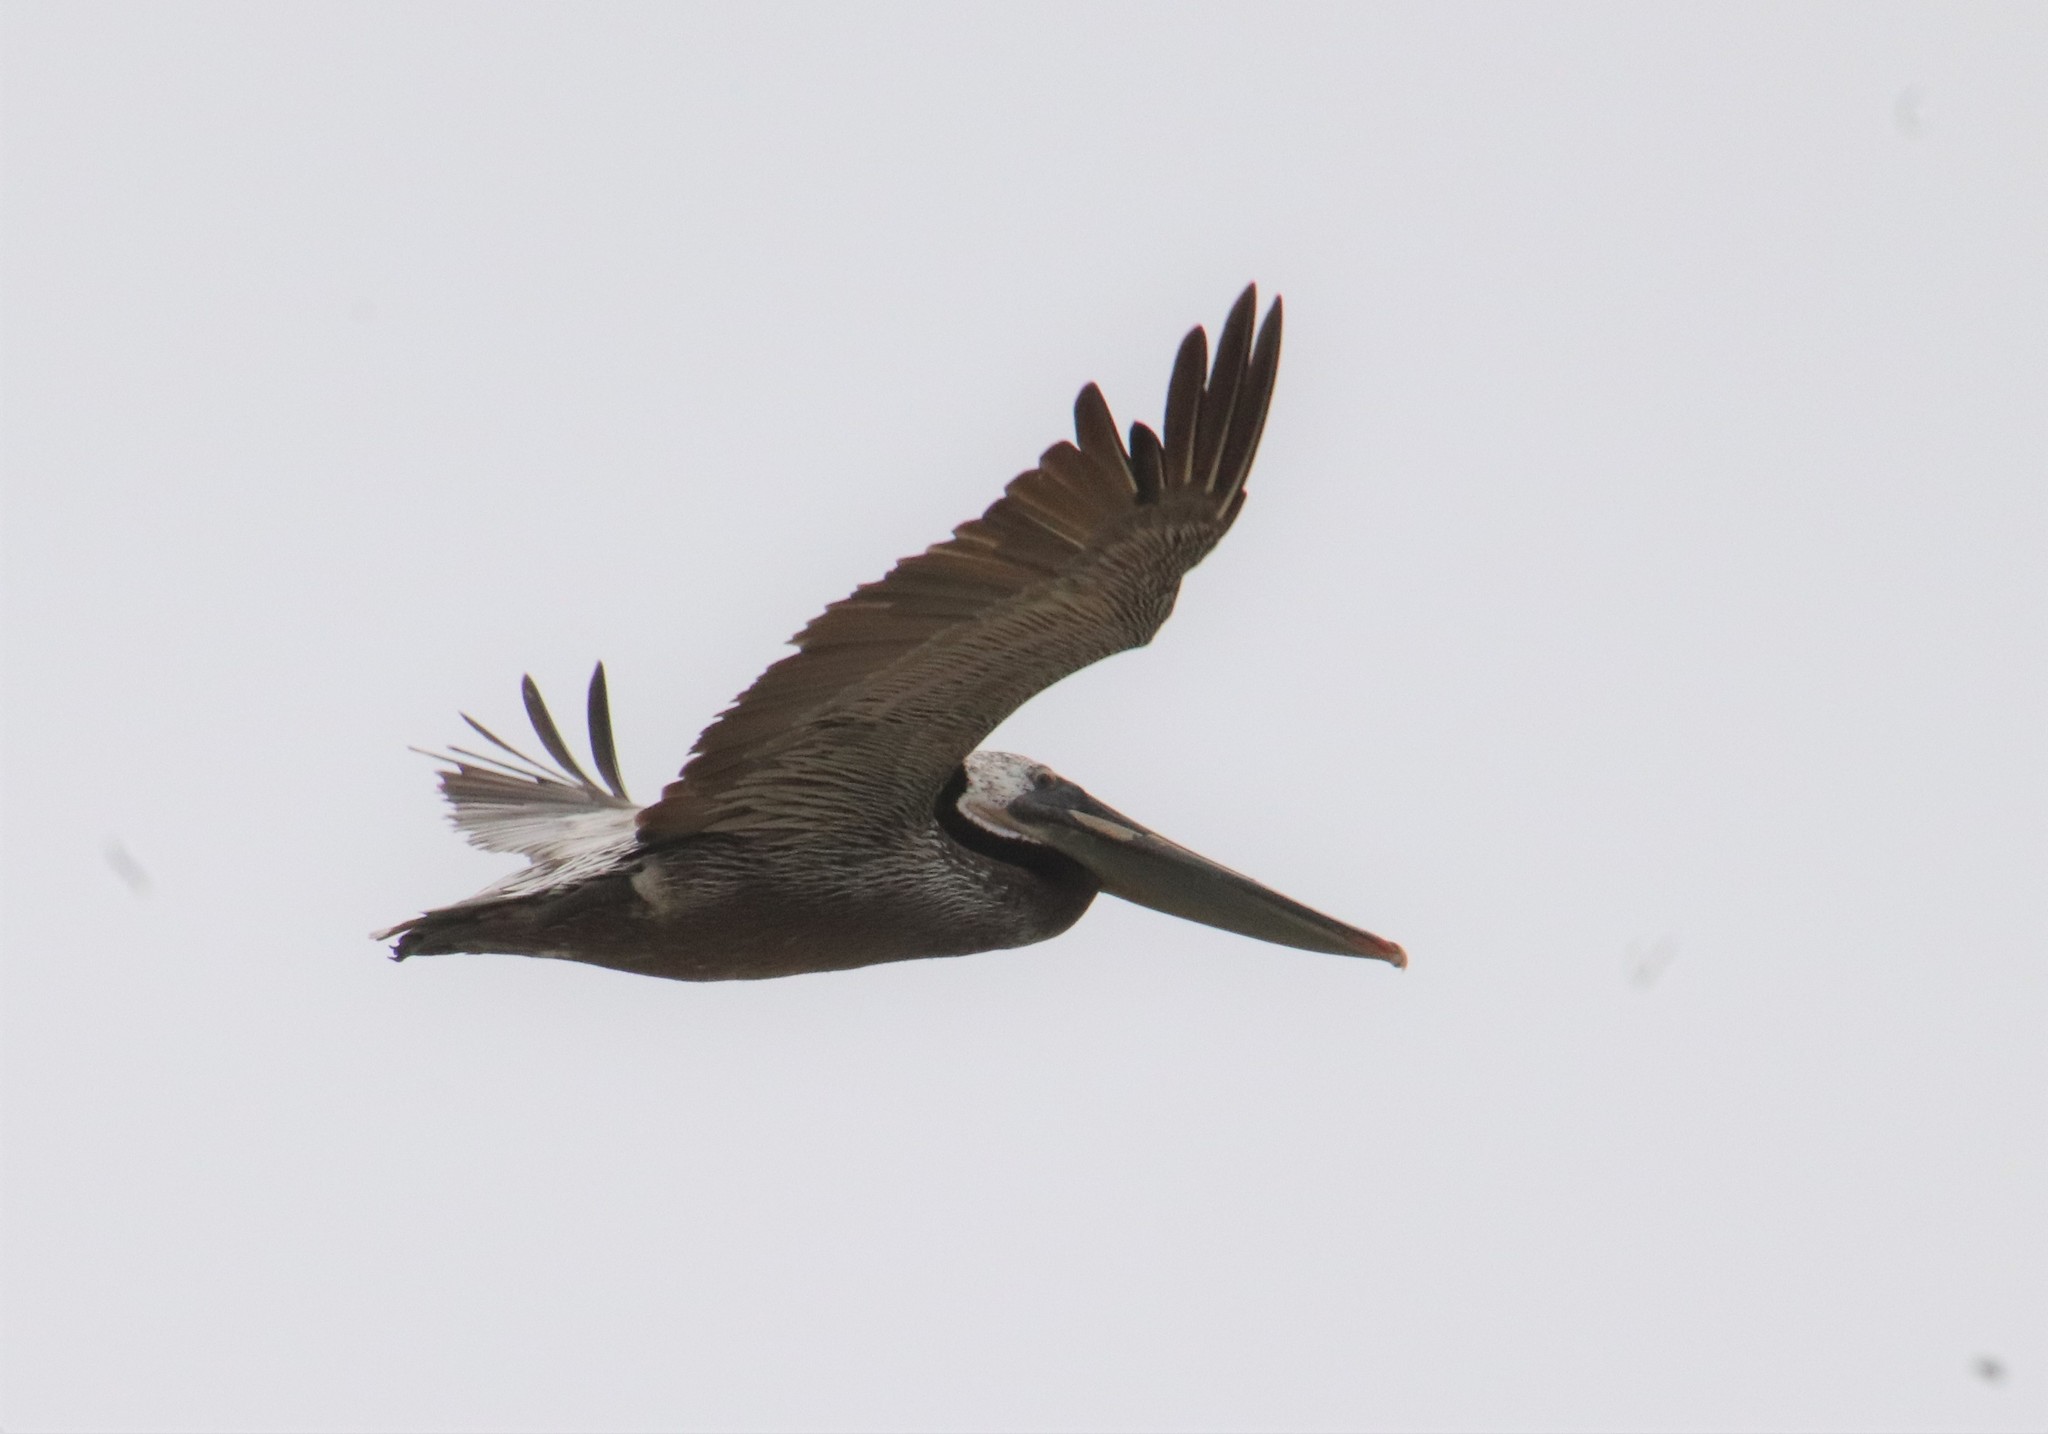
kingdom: Animalia
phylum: Chordata
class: Aves
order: Pelecaniformes
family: Pelecanidae
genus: Pelecanus
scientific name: Pelecanus occidentalis
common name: Brown pelican
